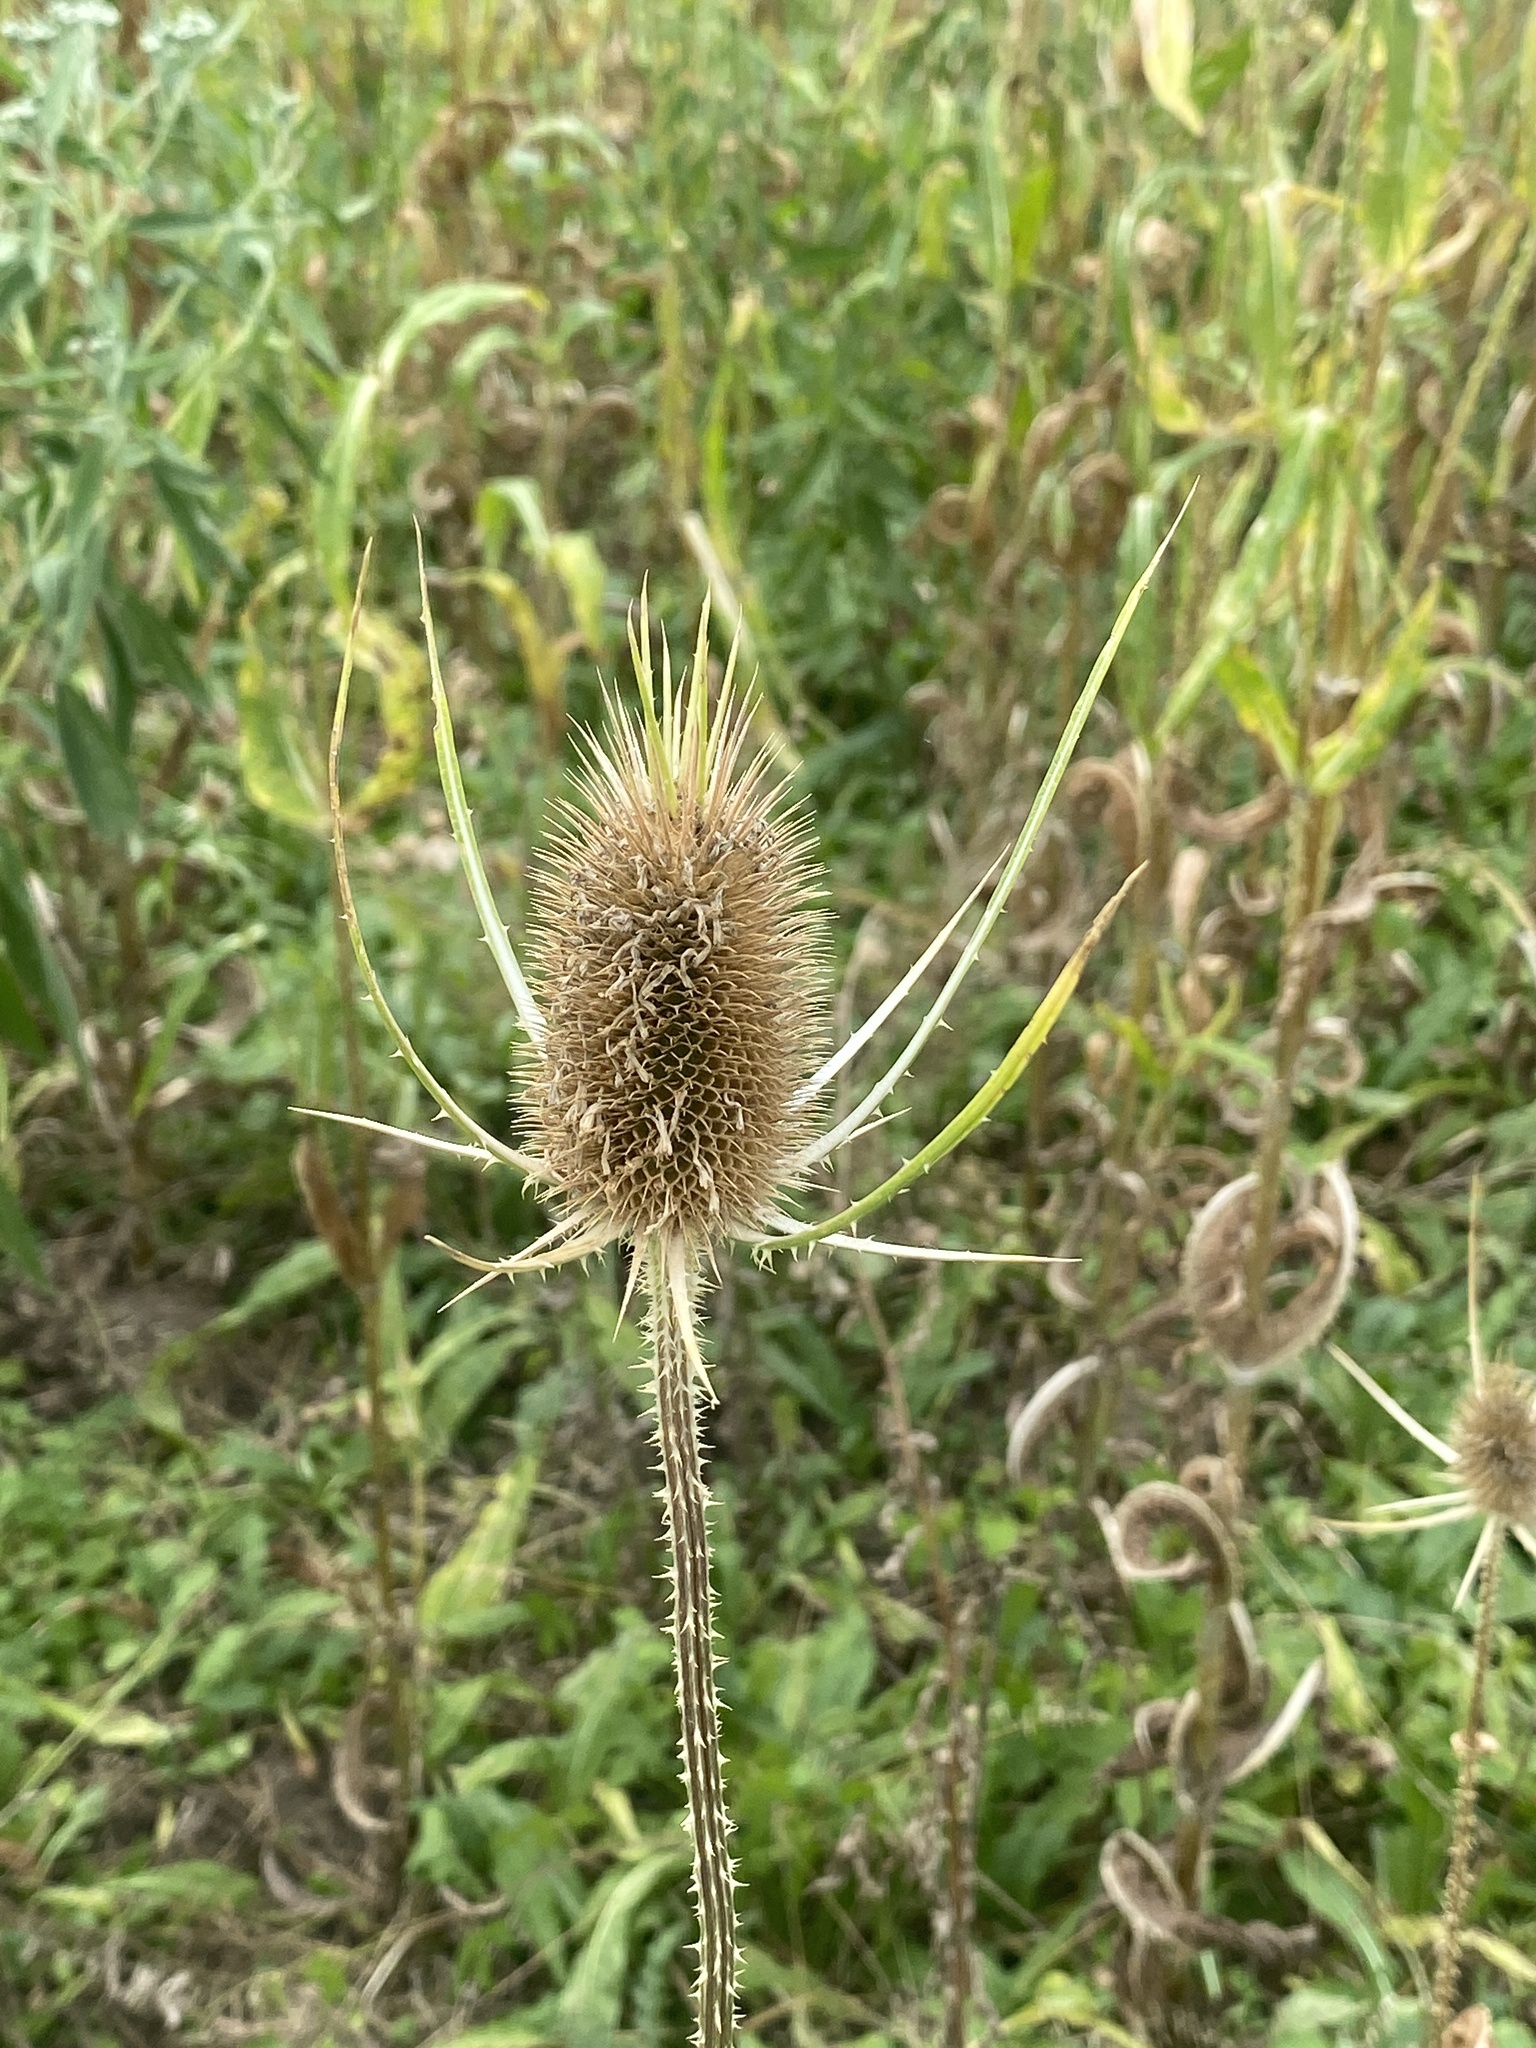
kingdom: Plantae
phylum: Tracheophyta
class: Magnoliopsida
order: Dipsacales
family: Caprifoliaceae
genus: Dipsacus
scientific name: Dipsacus fullonum
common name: Teasel
